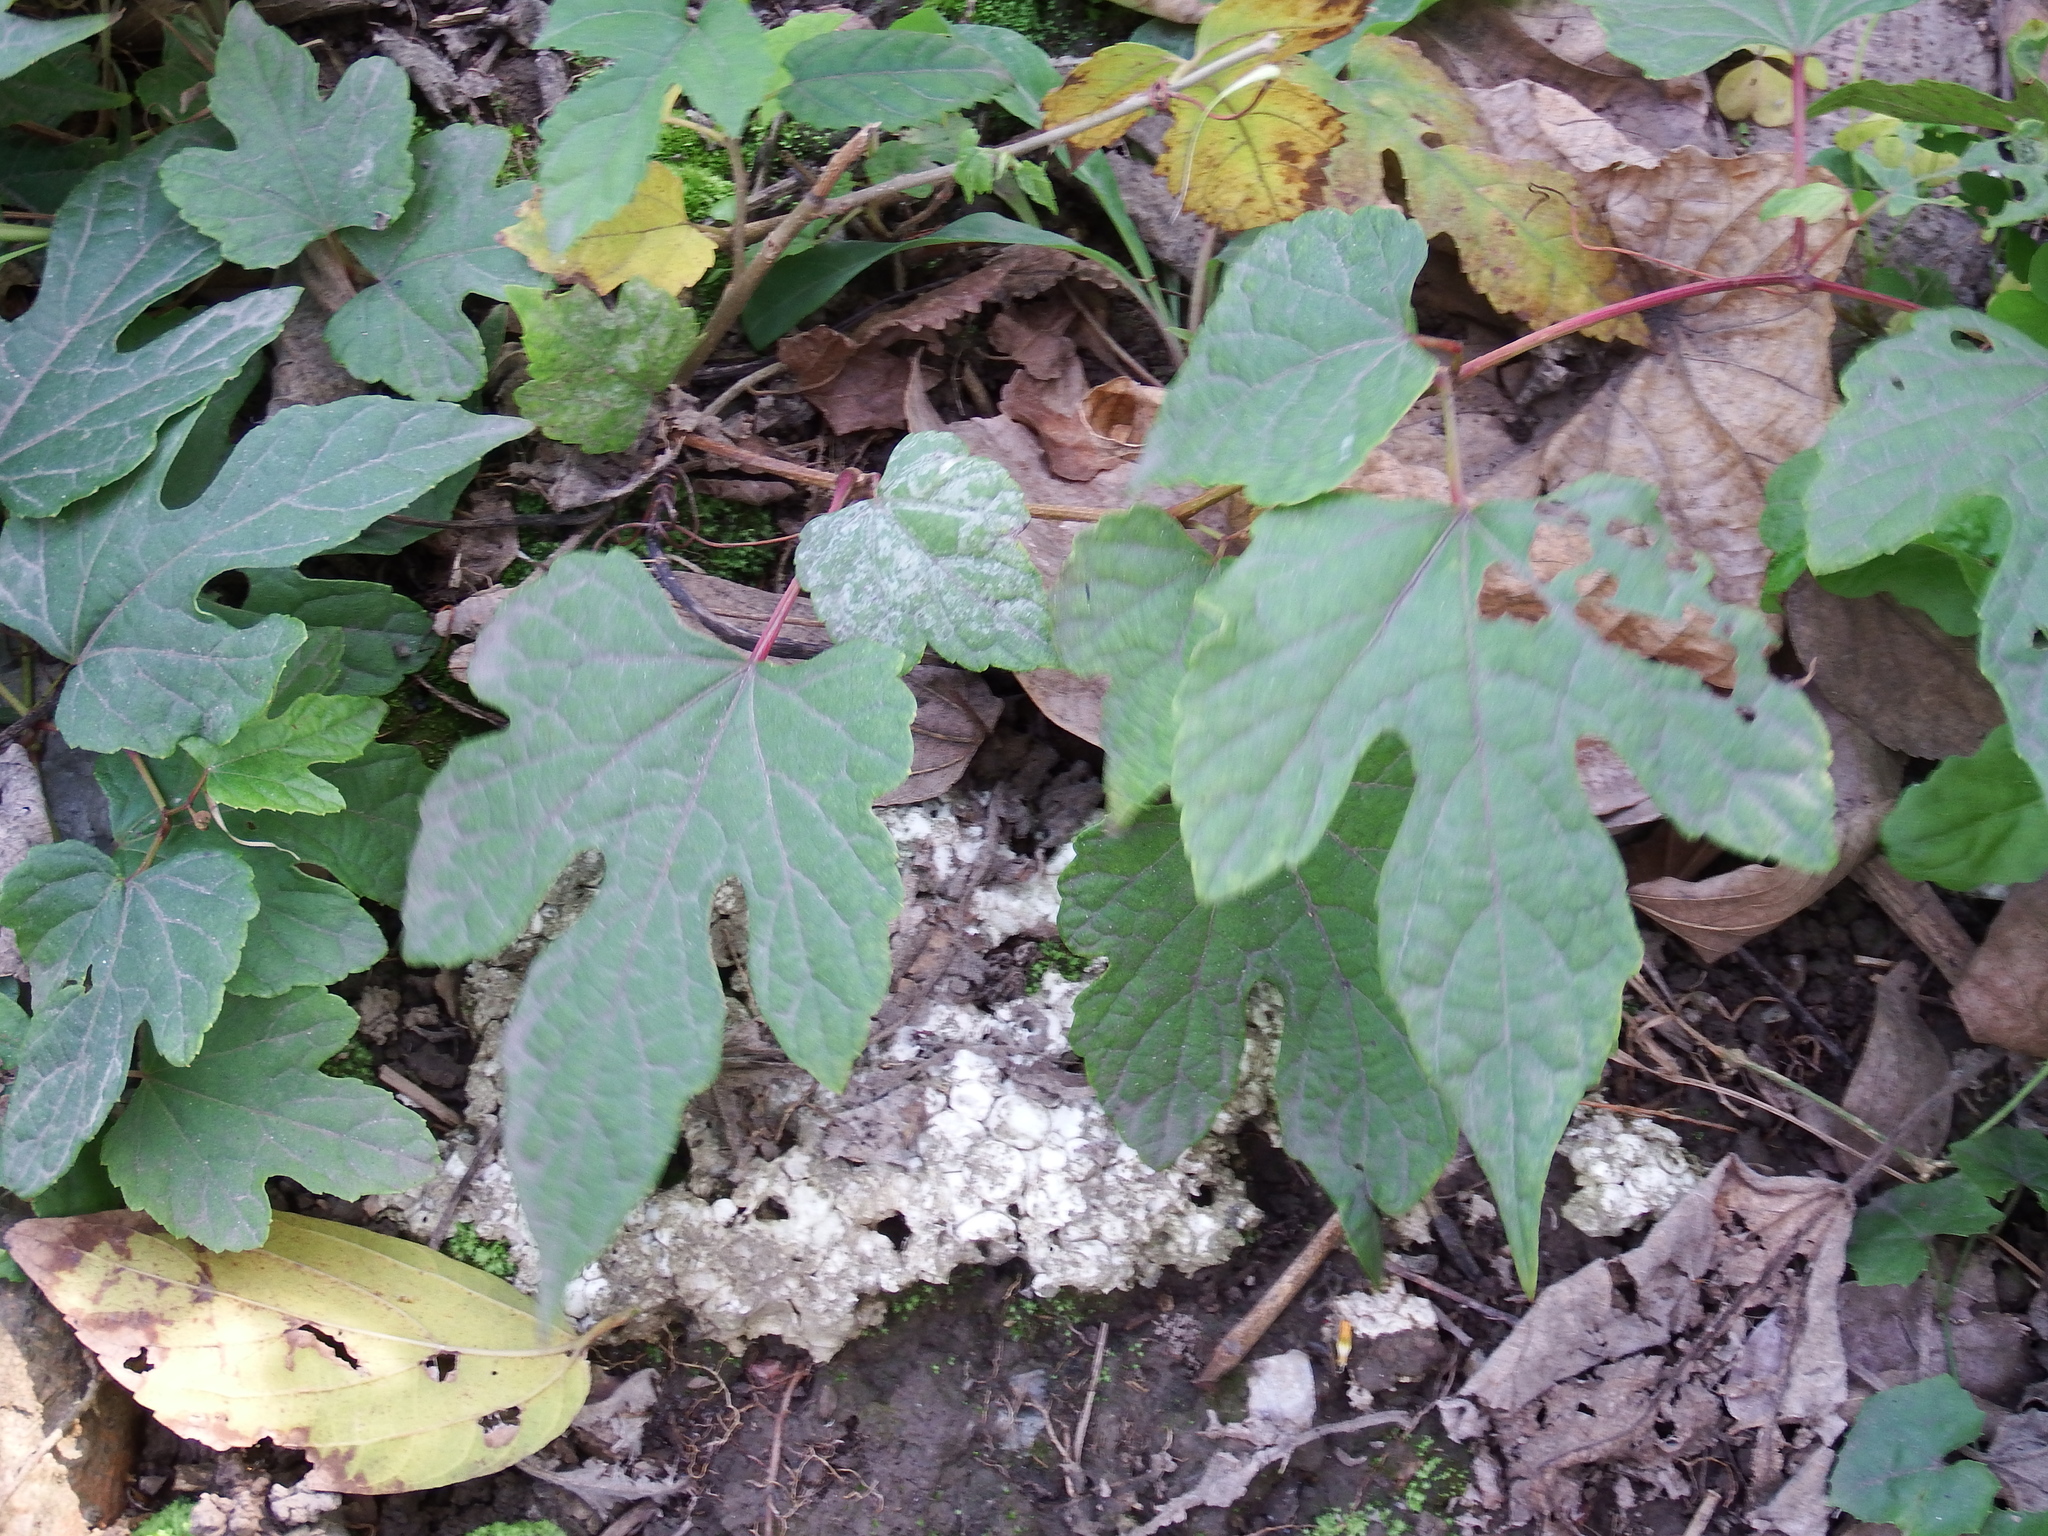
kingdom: Plantae
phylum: Tracheophyta
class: Magnoliopsida
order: Vitales
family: Vitaceae
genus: Ampelopsis
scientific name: Ampelopsis glandulosa
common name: Amur peppervine
